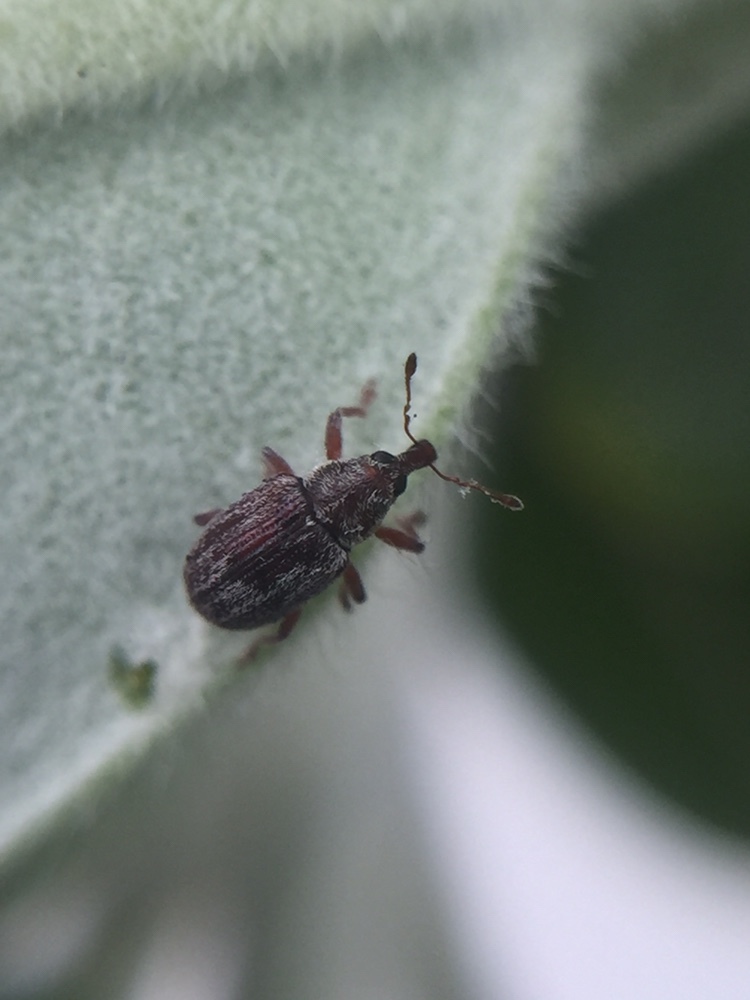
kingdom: Animalia
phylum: Arthropoda
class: Insecta
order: Coleoptera
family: Curculionidae
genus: Neomycta
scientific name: Neomycta rubida
